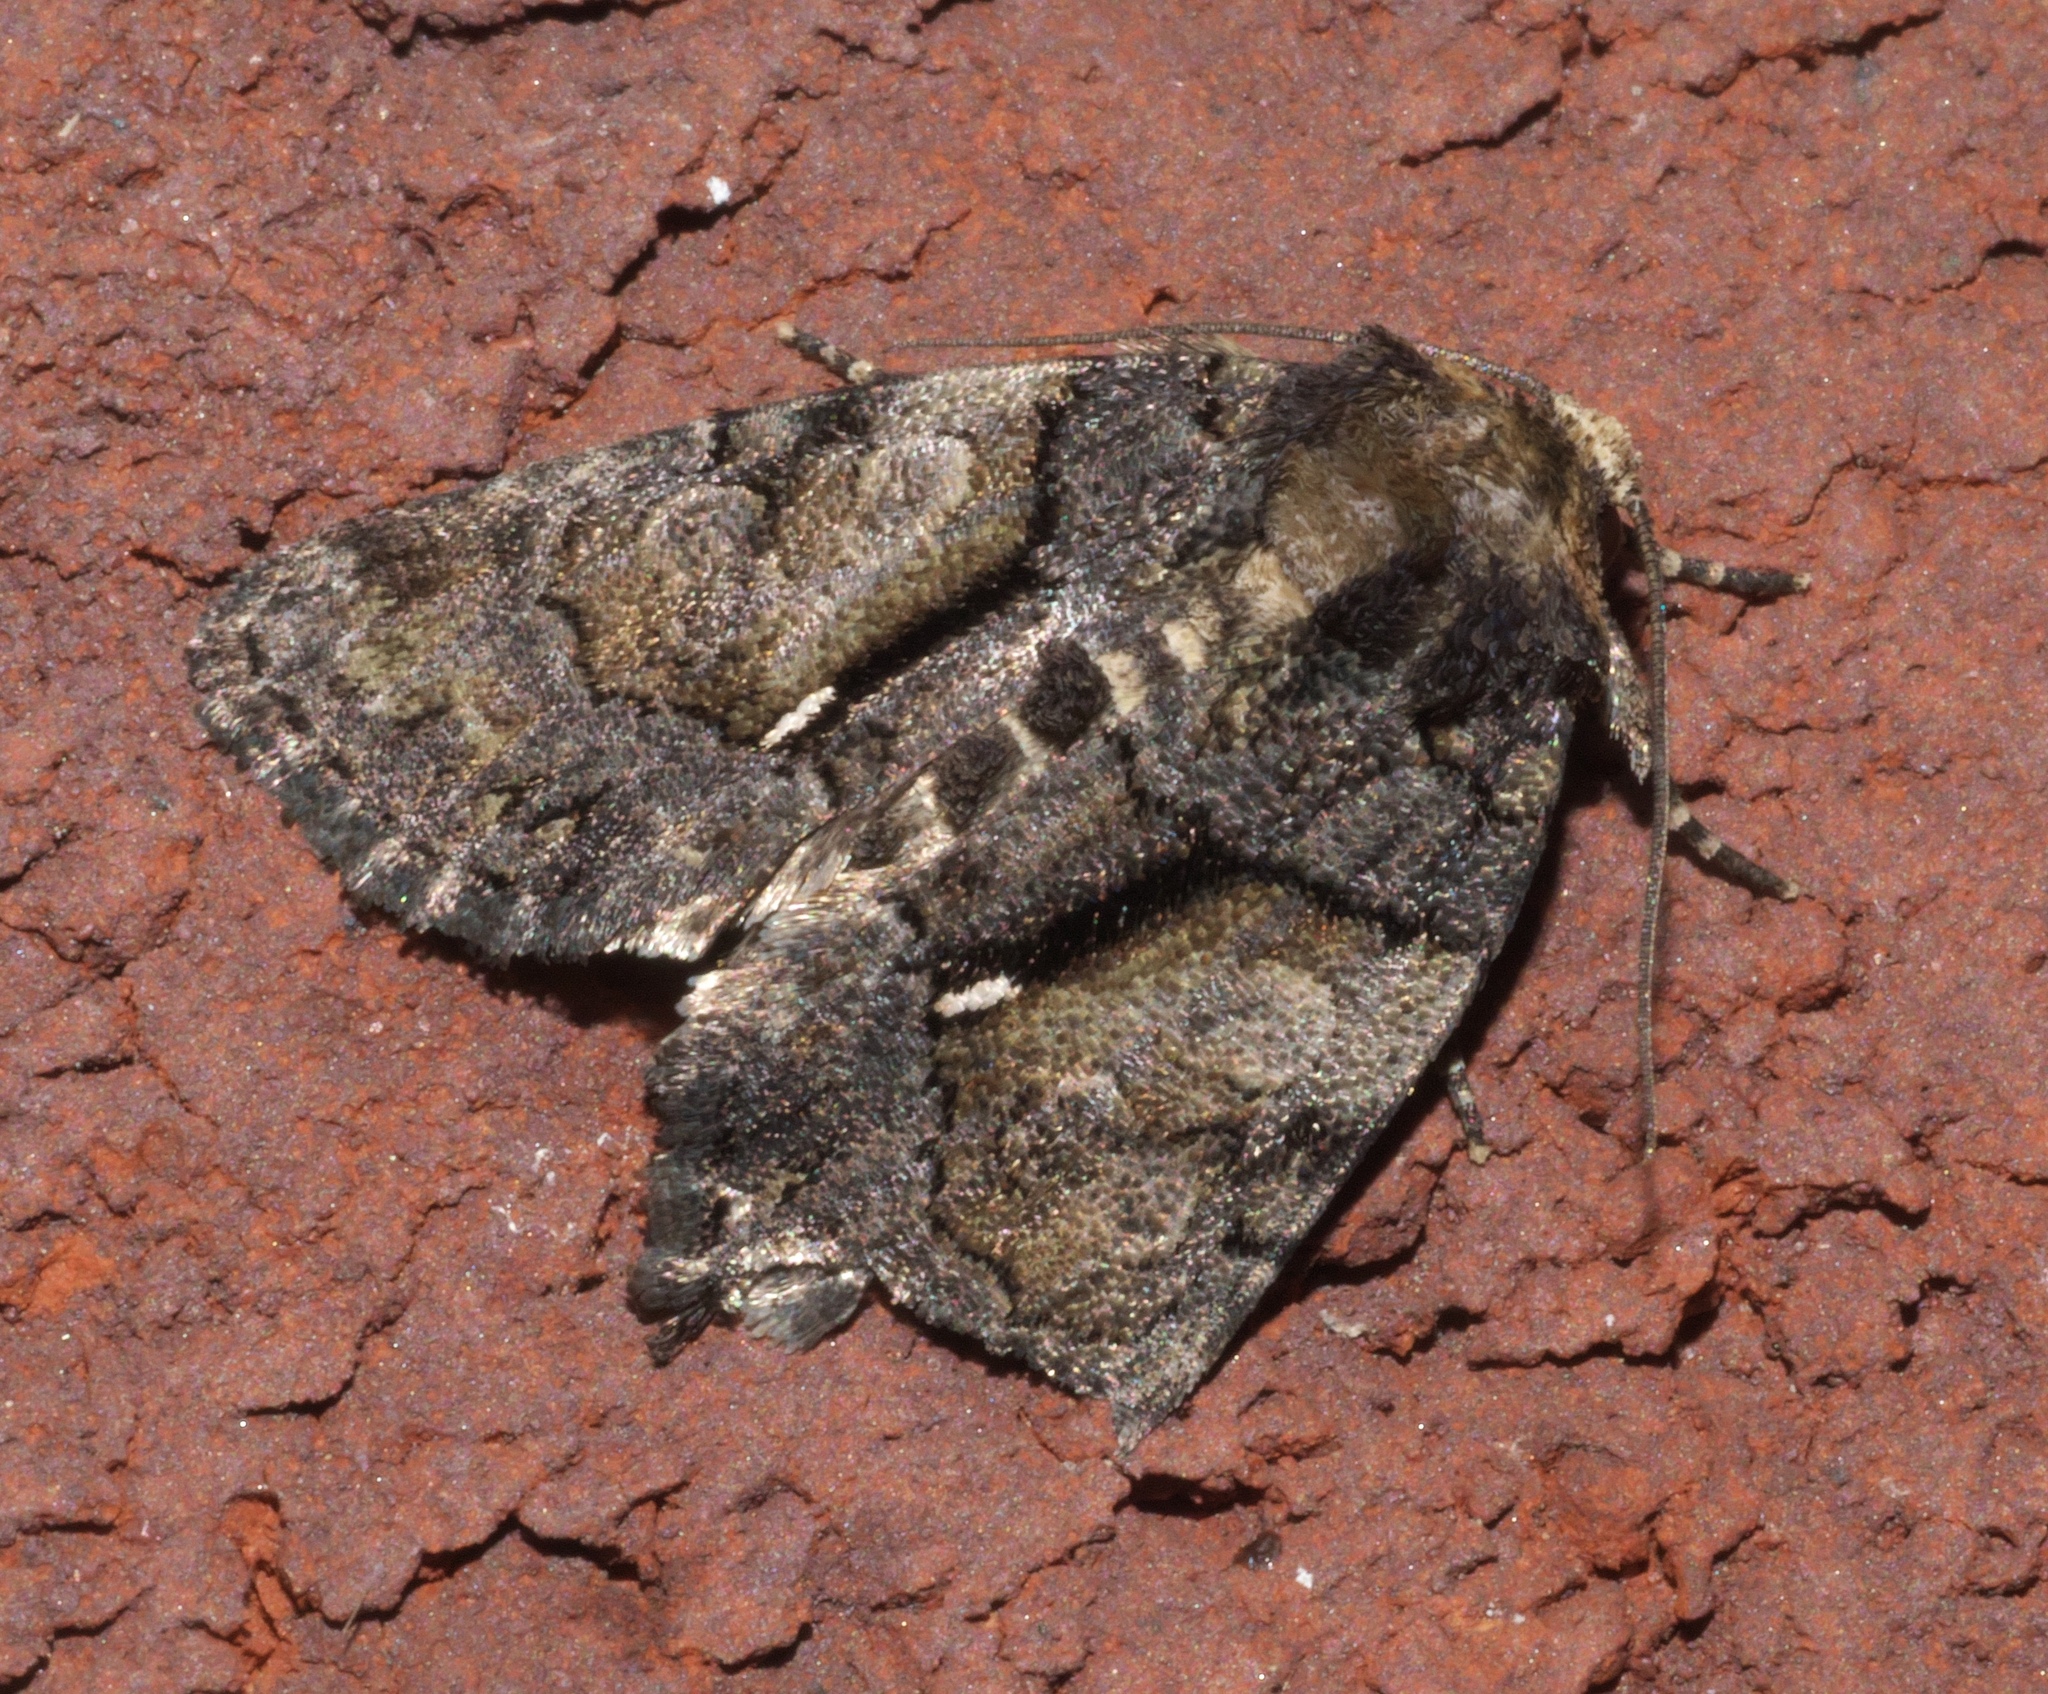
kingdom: Animalia
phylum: Arthropoda
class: Insecta
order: Lepidoptera
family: Noctuidae
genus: Chytonix
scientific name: Chytonix palliatricula
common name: Cloaked marvel
